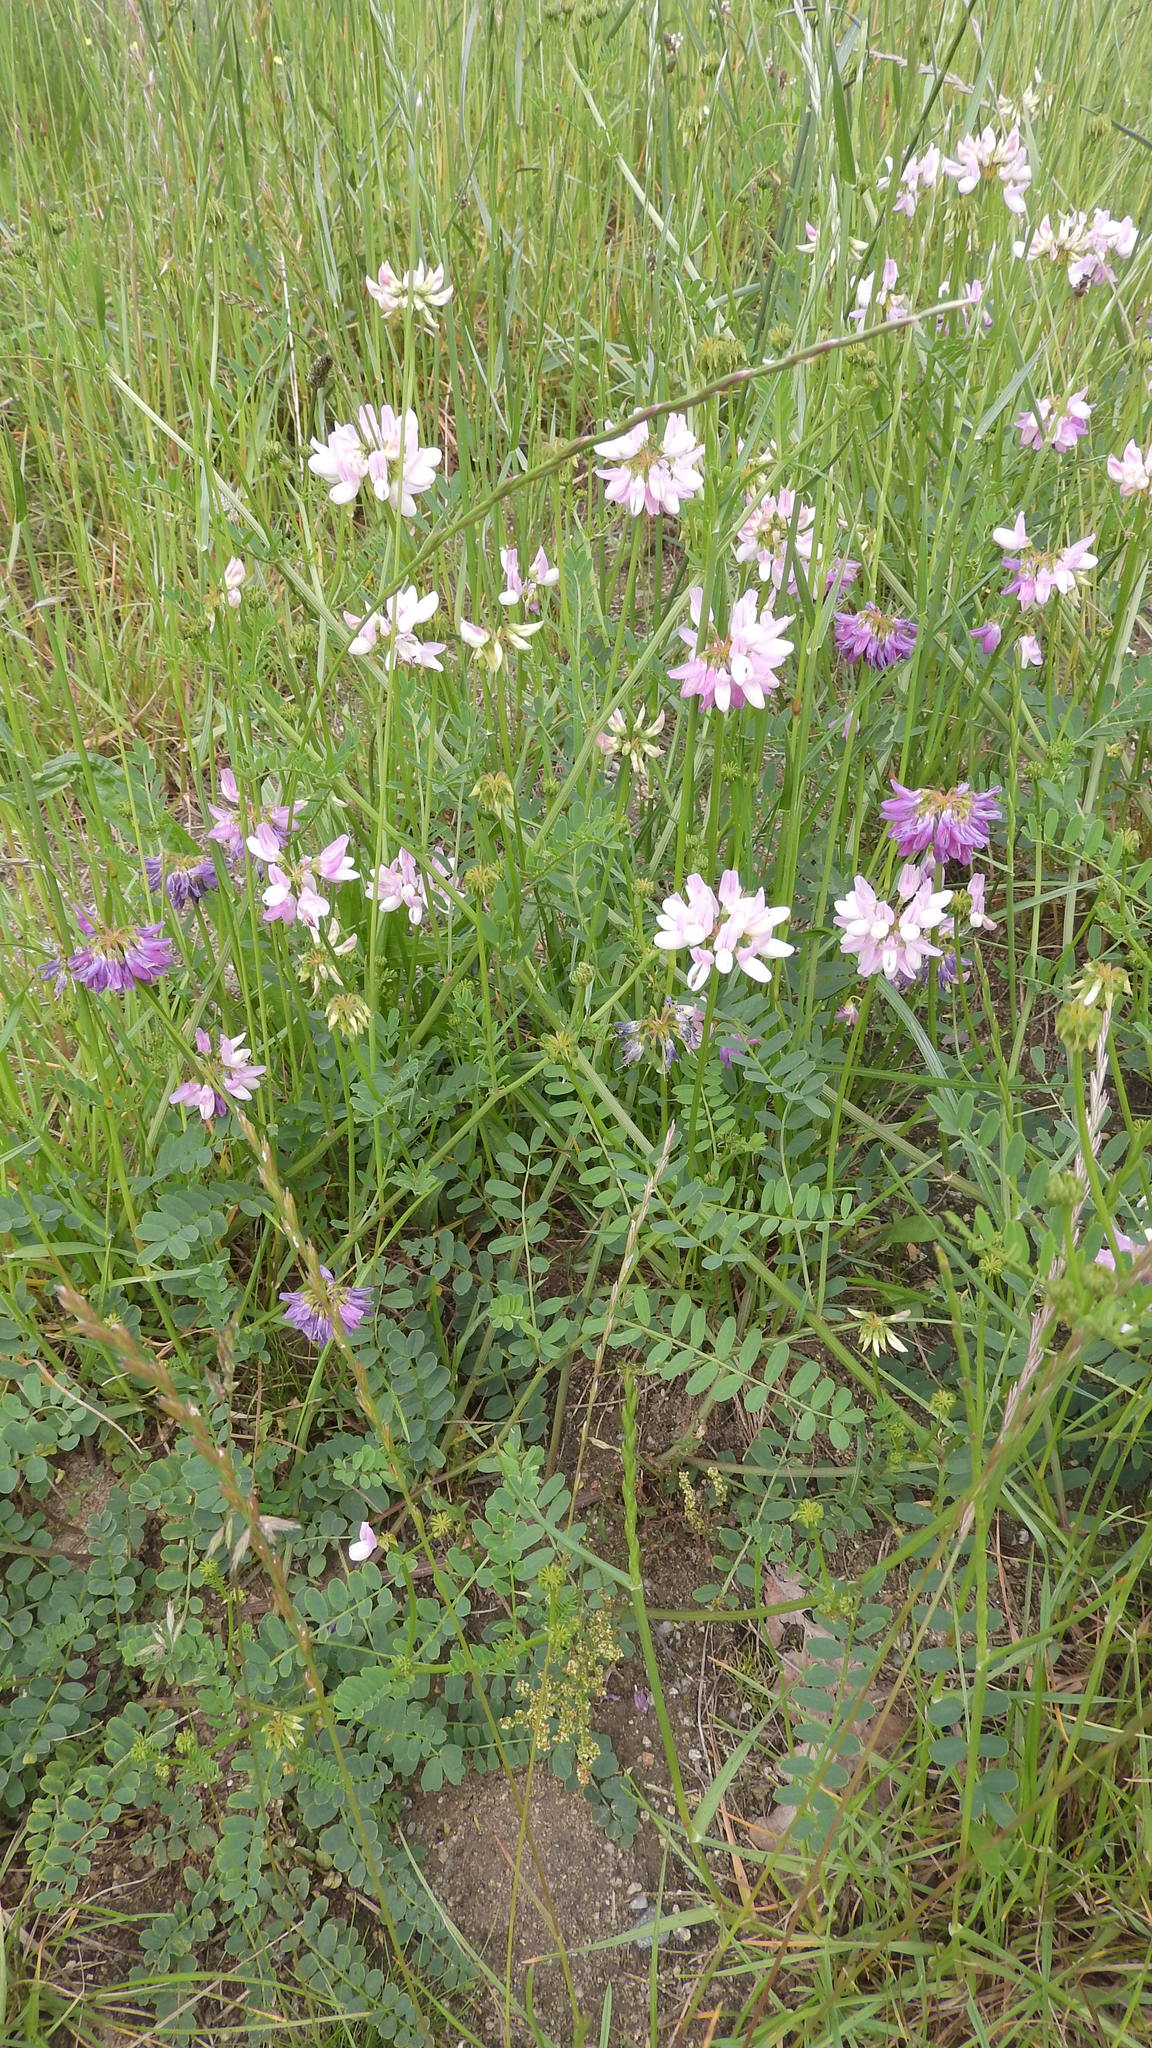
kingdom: Plantae
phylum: Tracheophyta
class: Magnoliopsida
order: Fabales
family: Fabaceae
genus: Coronilla
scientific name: Coronilla varia
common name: Crownvetch
